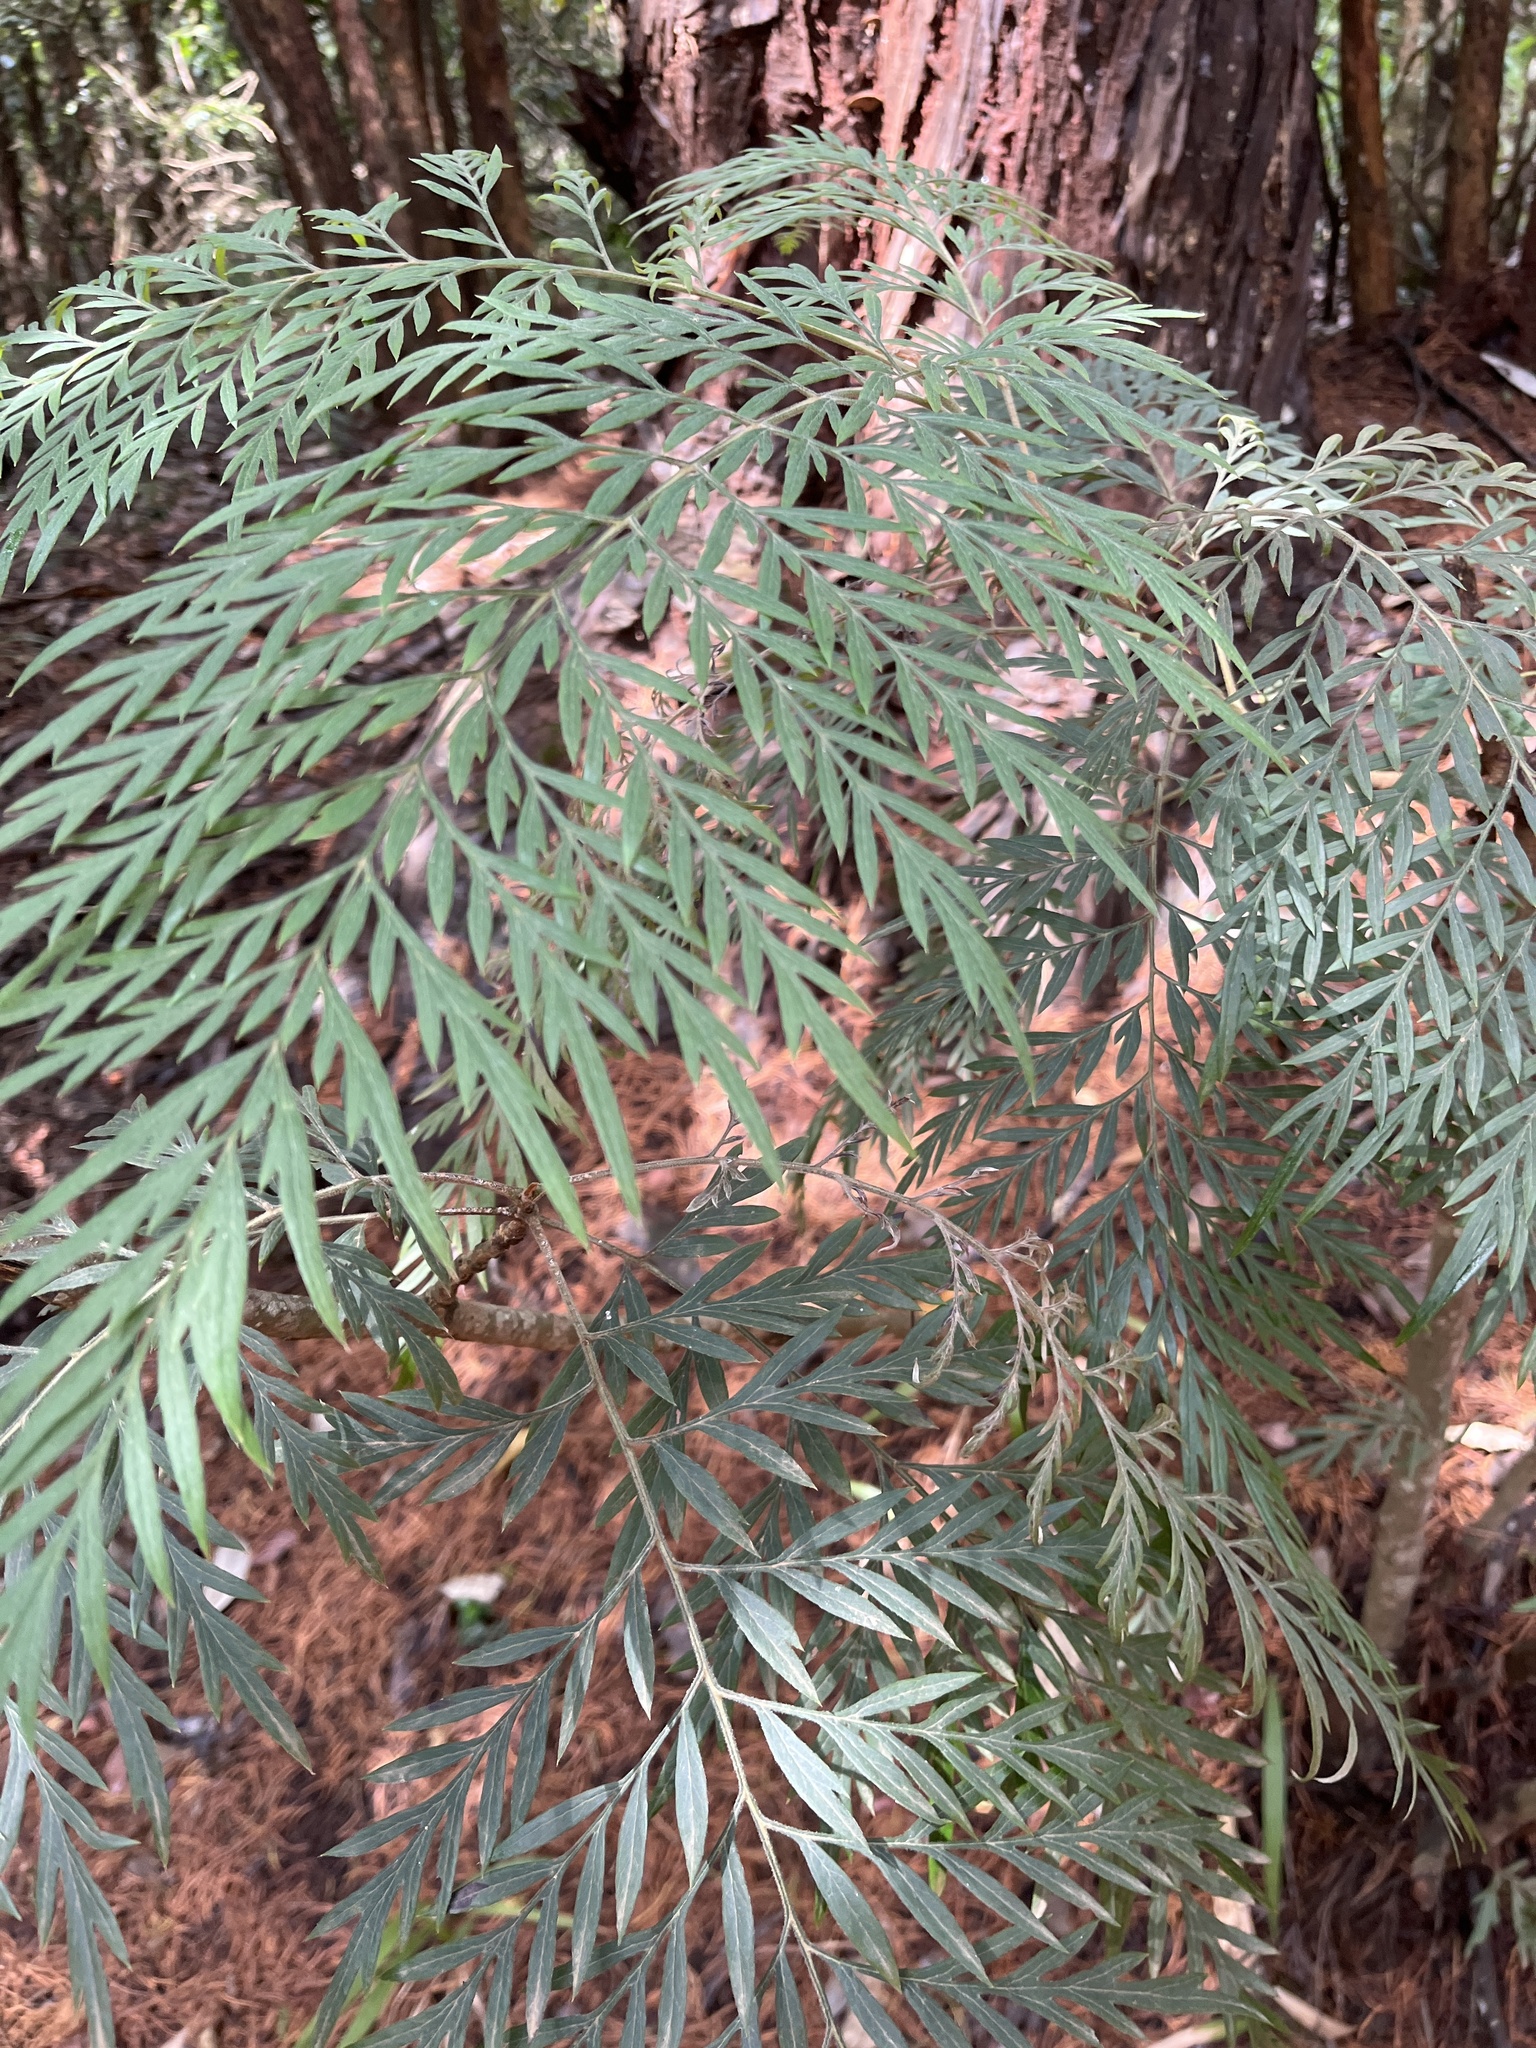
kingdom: Plantae
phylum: Tracheophyta
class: Magnoliopsida
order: Proteales
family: Proteaceae
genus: Grevillea
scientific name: Grevillea robusta
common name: Silkoak
